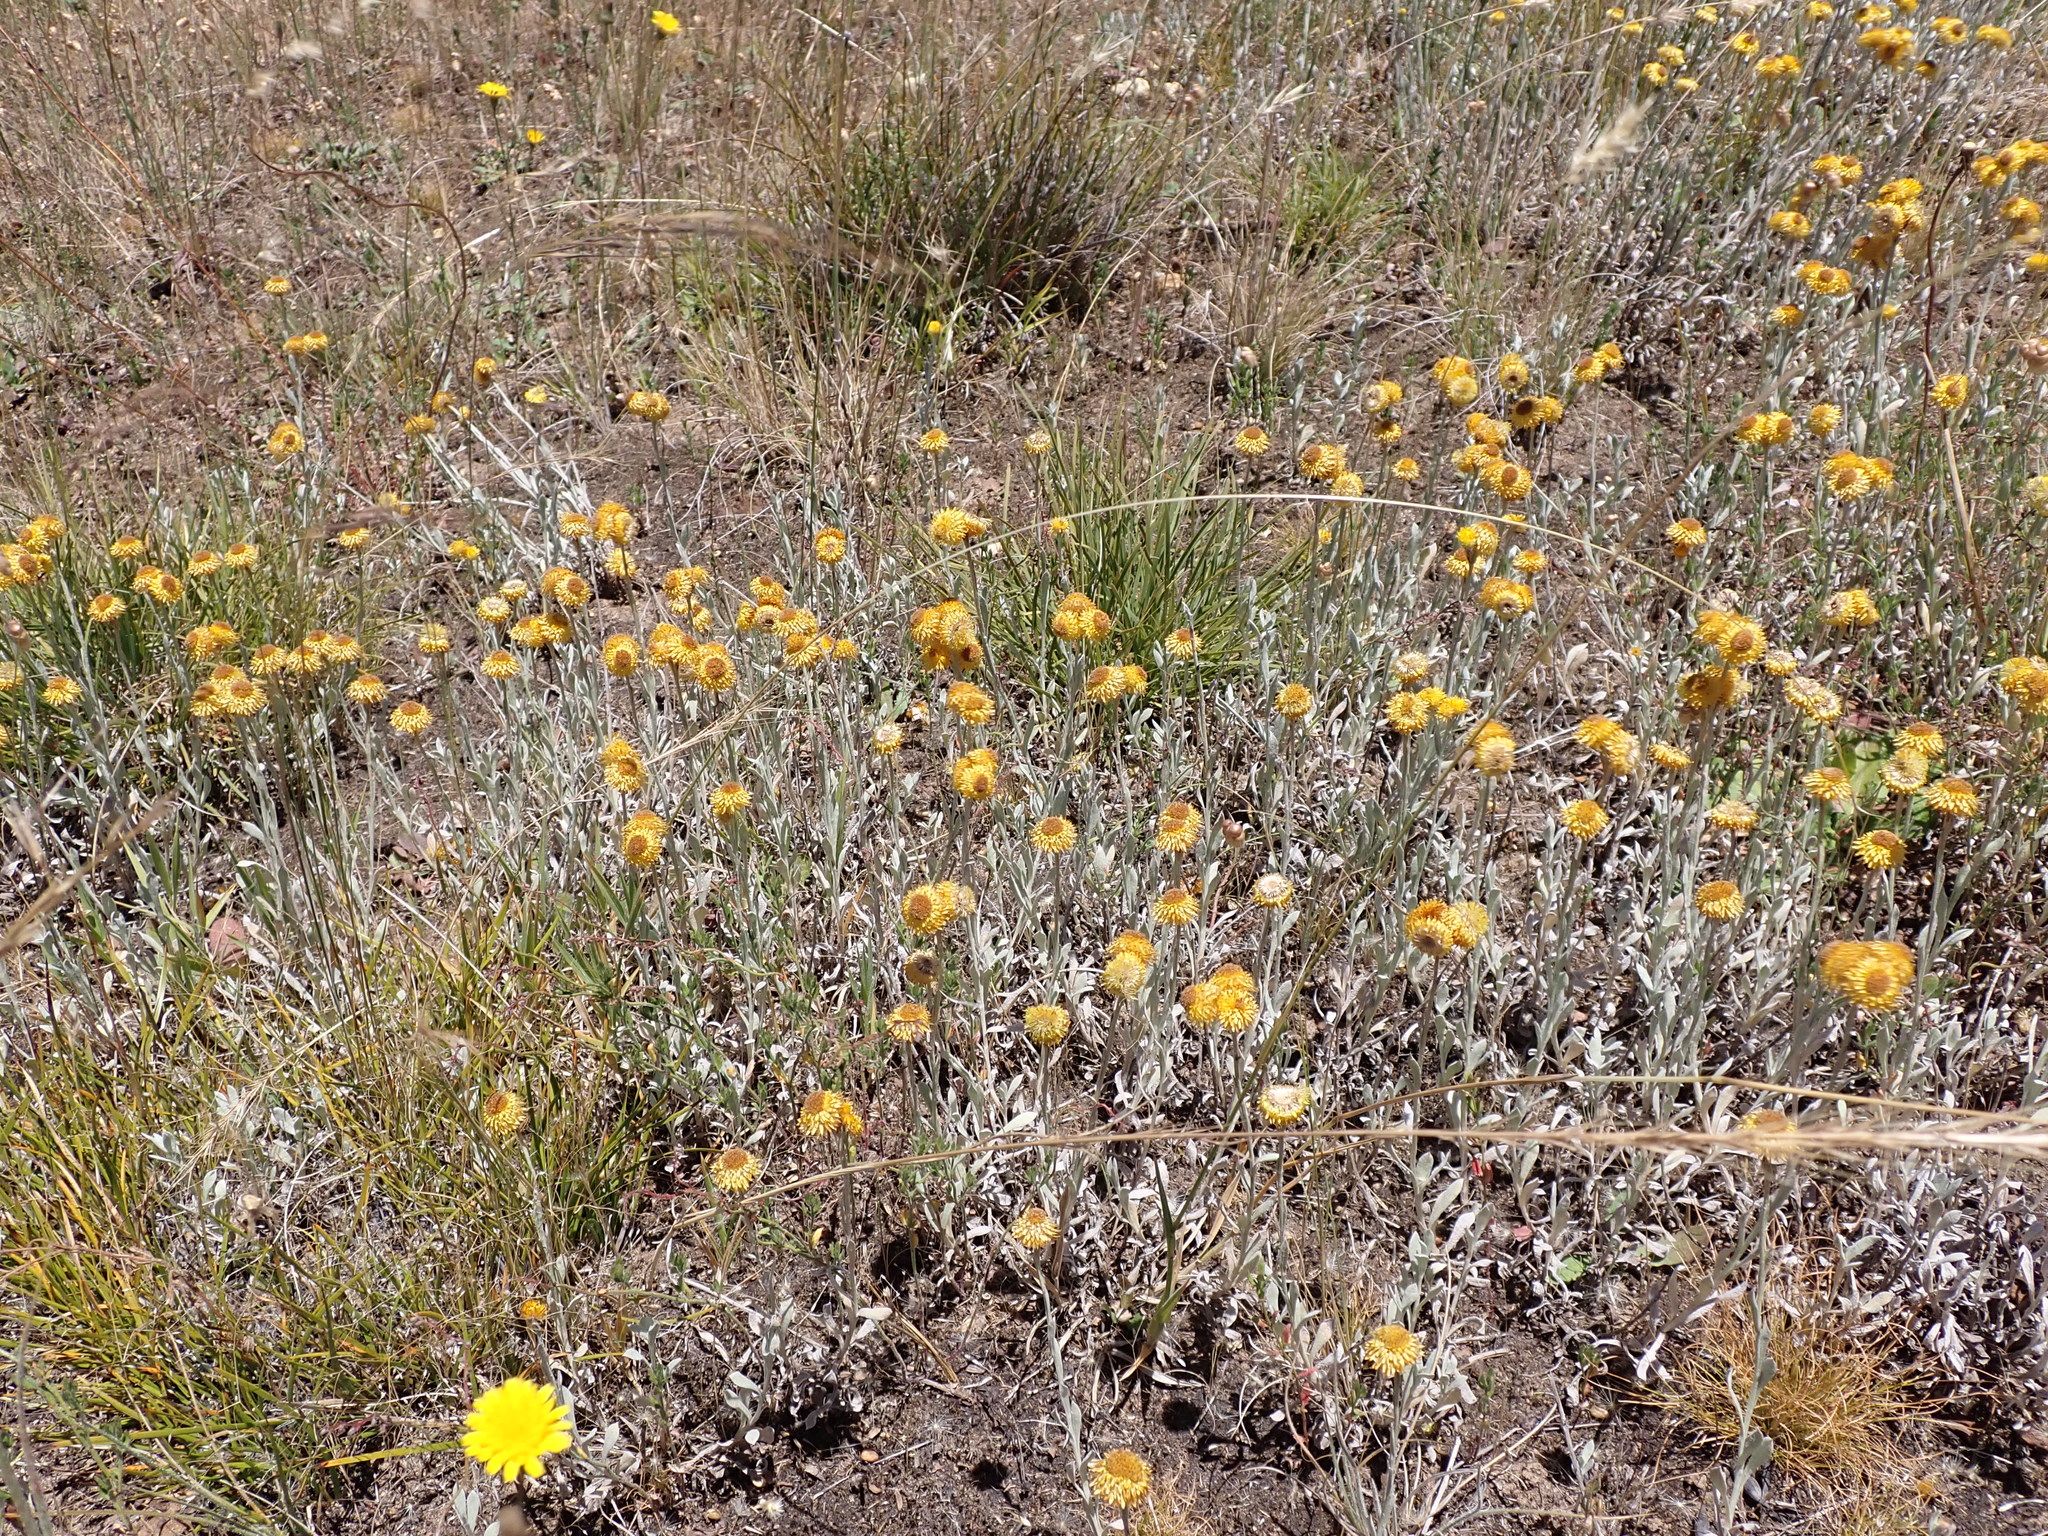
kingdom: Plantae
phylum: Tracheophyta
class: Magnoliopsida
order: Asterales
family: Asteraceae
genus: Chrysocephalum
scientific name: Chrysocephalum apiculatum
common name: Common everlasting
